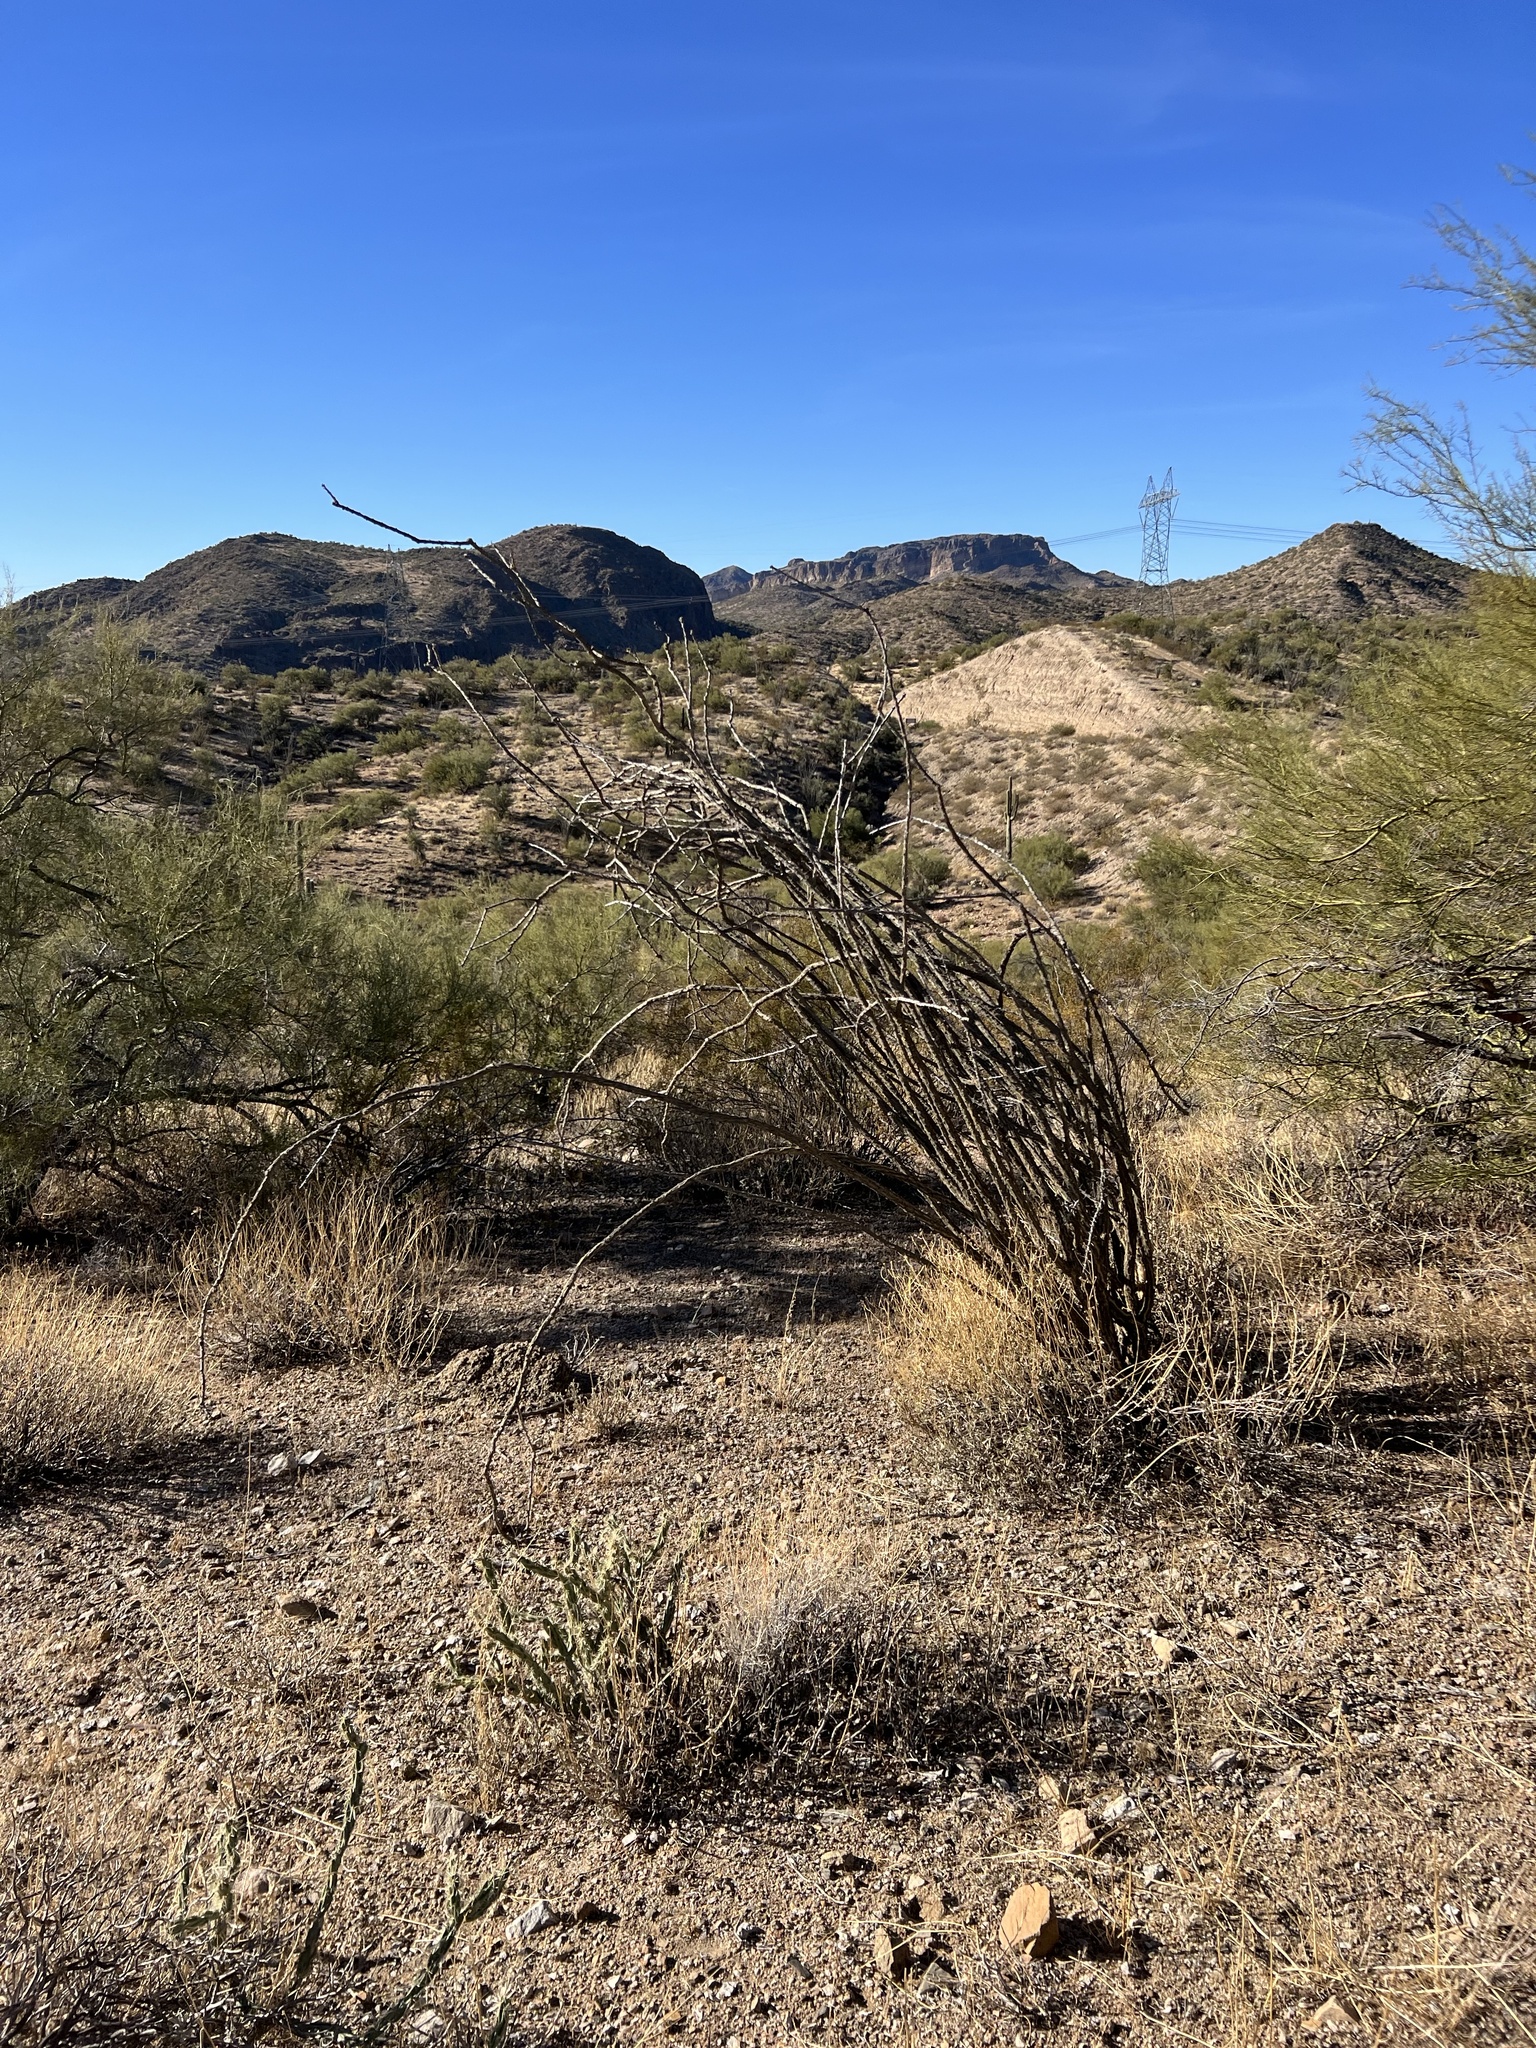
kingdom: Plantae
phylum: Tracheophyta
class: Magnoliopsida
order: Ericales
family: Fouquieriaceae
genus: Fouquieria
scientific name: Fouquieria splendens
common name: Vine-cactus
